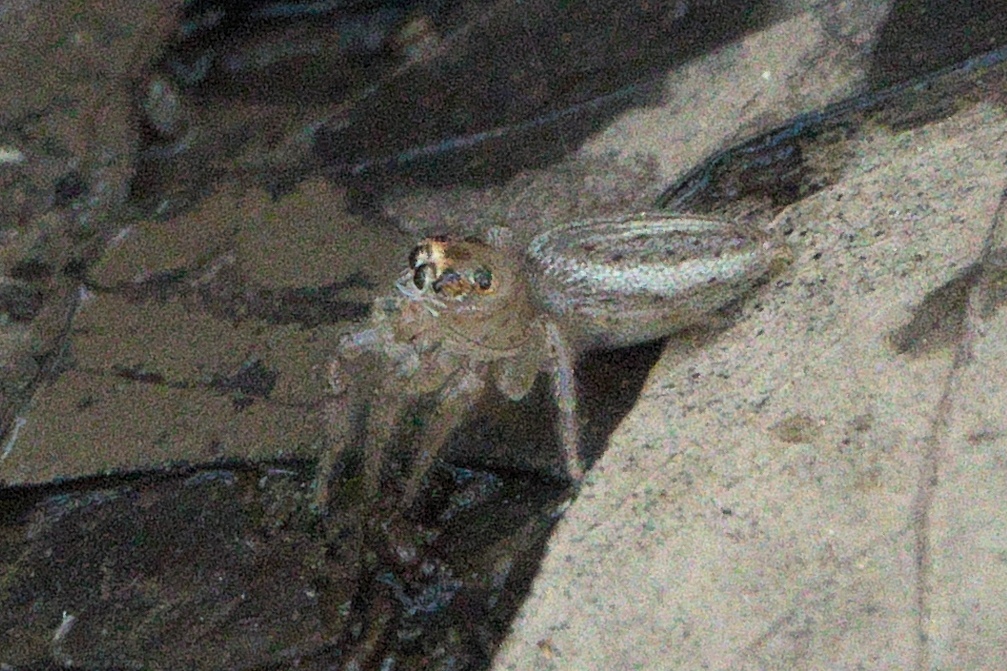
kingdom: Animalia
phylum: Arthropoda
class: Arachnida
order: Araneae
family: Salticidae
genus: Colonus
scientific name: Colonus sylvanus
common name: Jumping spiders
